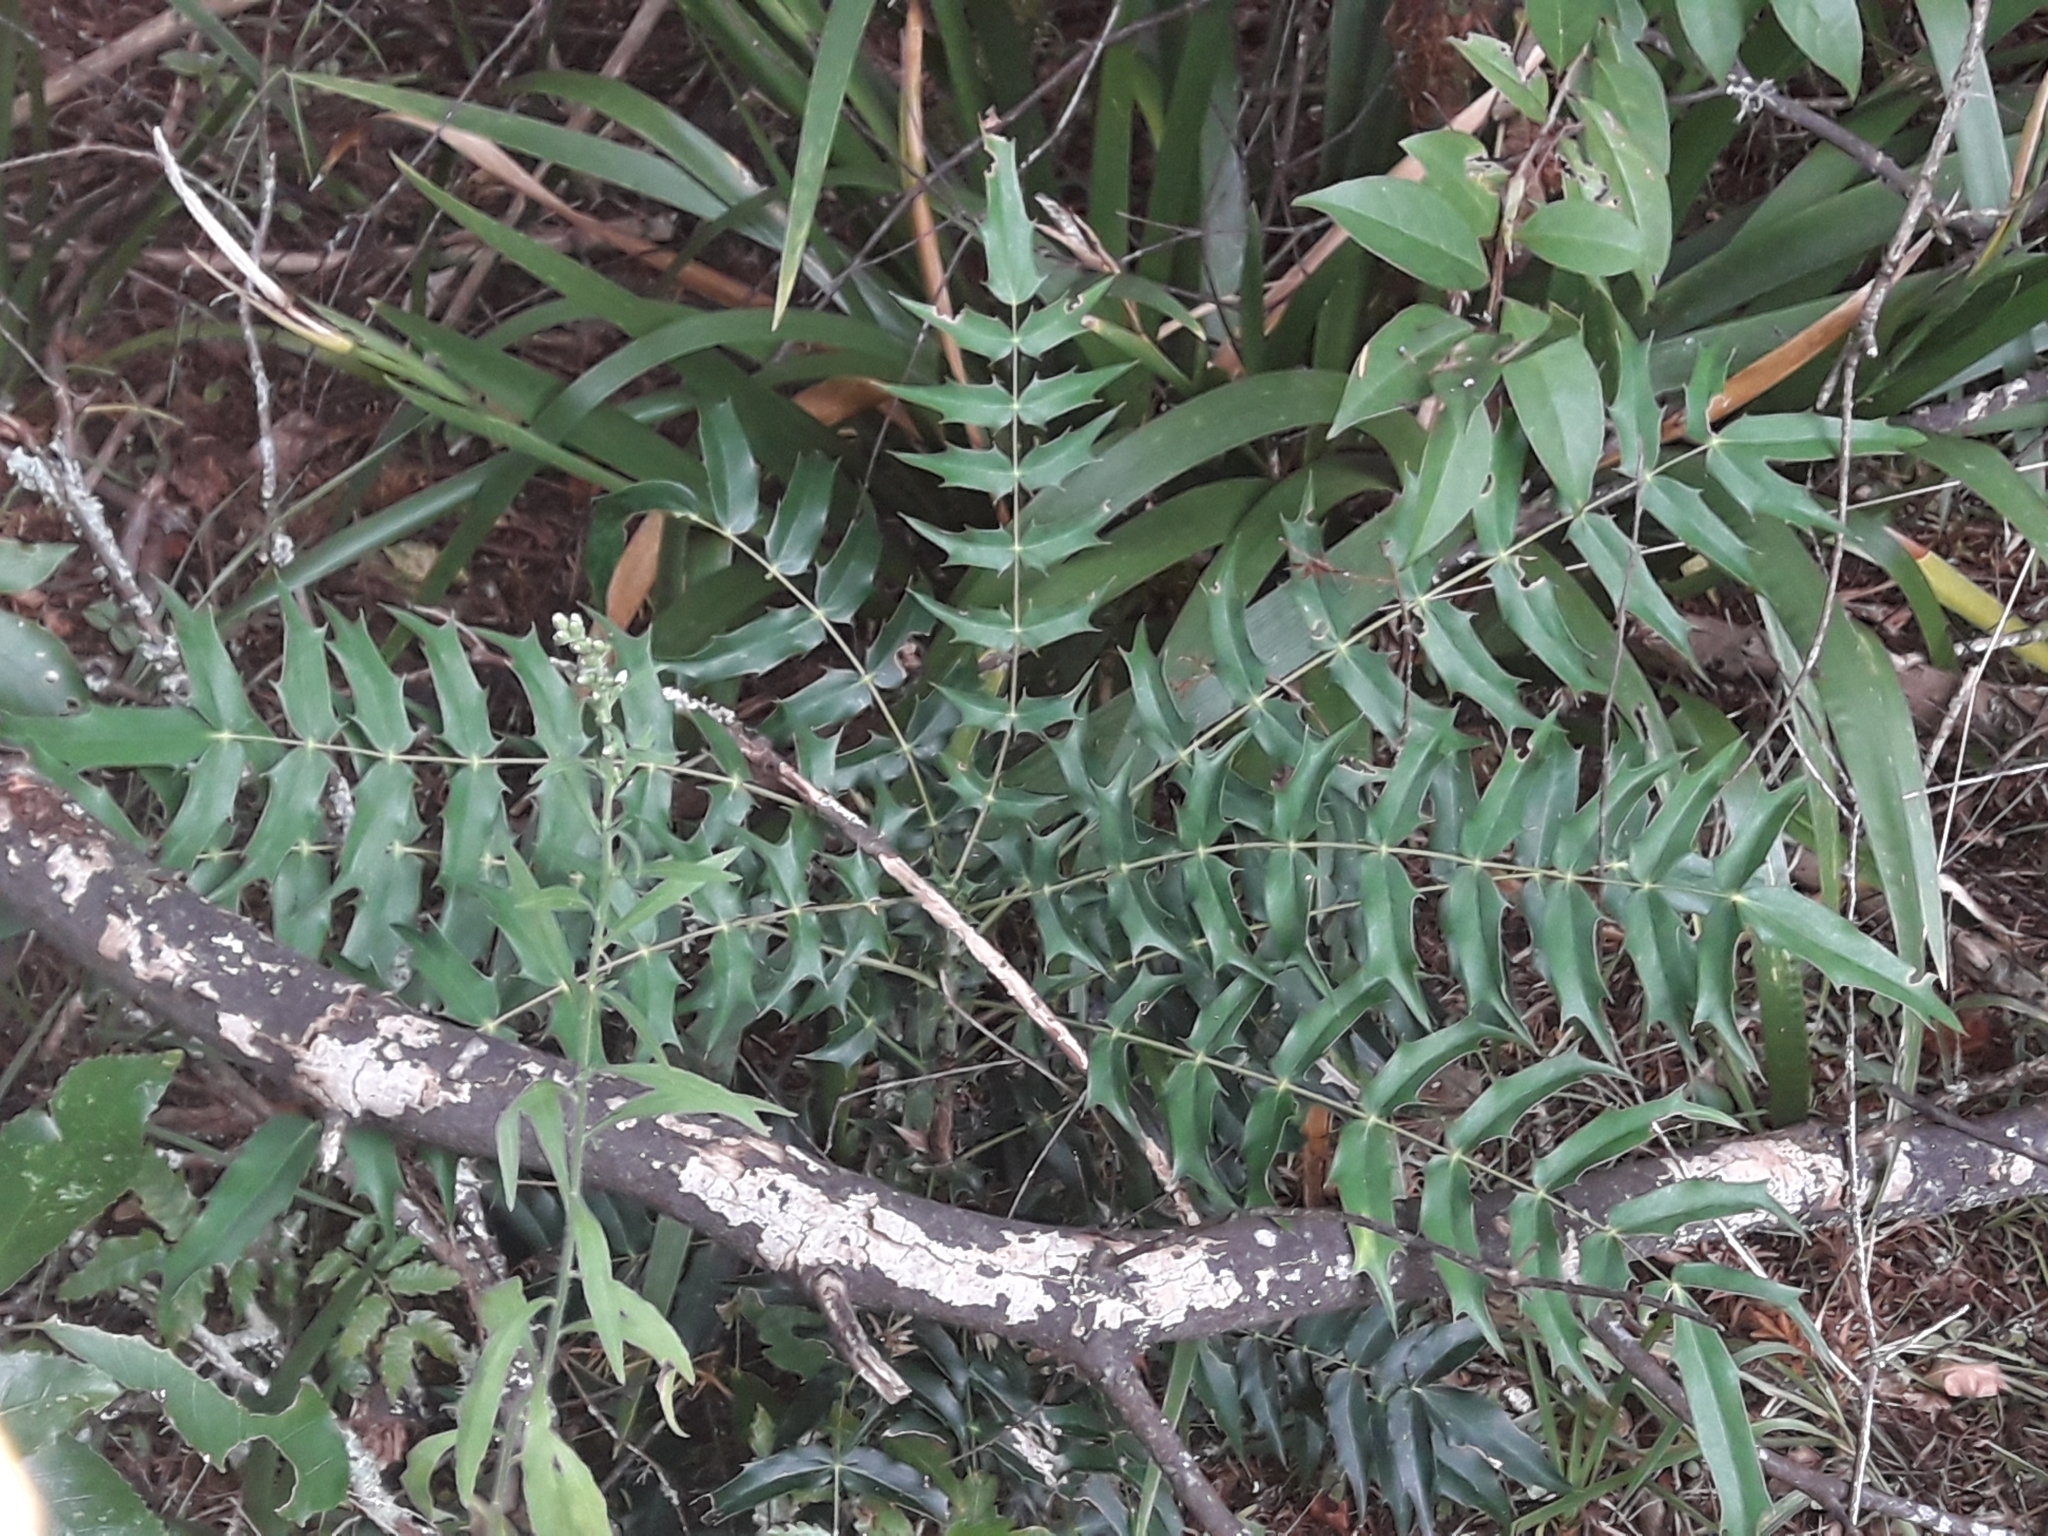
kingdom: Plantae
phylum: Tracheophyta
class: Magnoliopsida
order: Ranunculales
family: Berberidaceae
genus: Mahonia
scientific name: Mahonia oiwakensis
